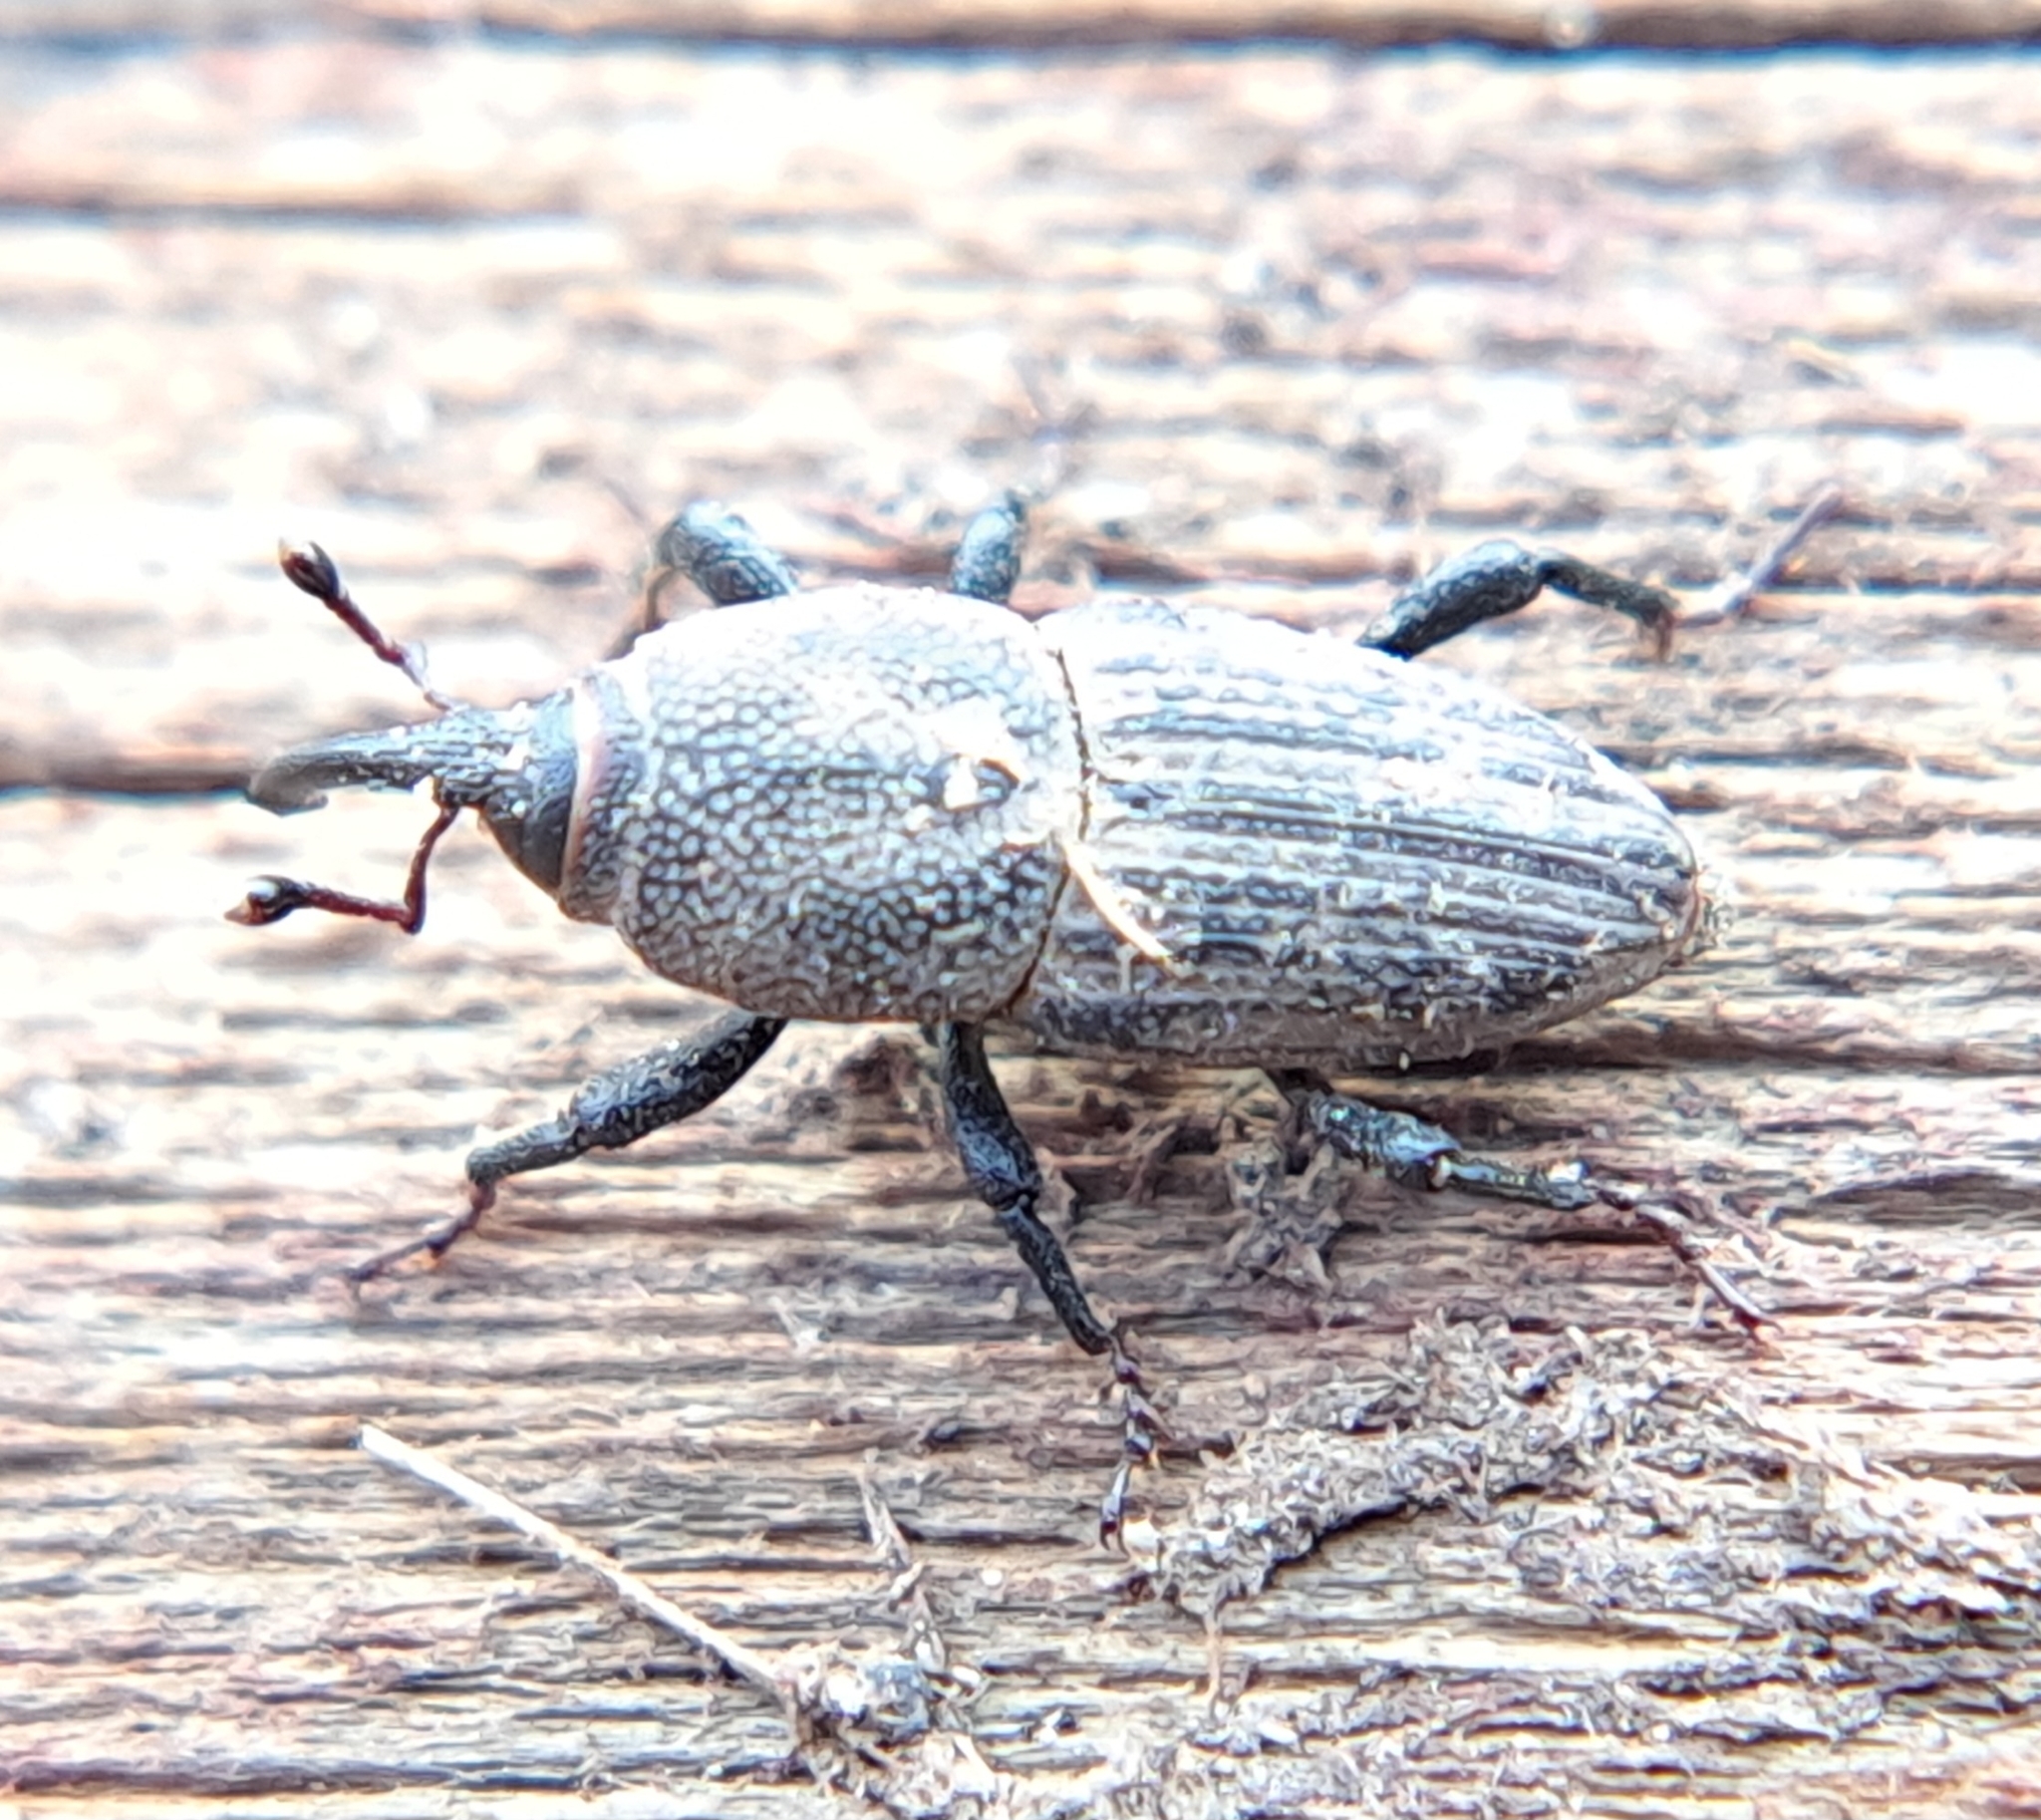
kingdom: Animalia
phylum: Arthropoda
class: Insecta
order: Coleoptera
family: Dryophthoridae
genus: Sphenophorus
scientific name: Sphenophorus interstitialis
